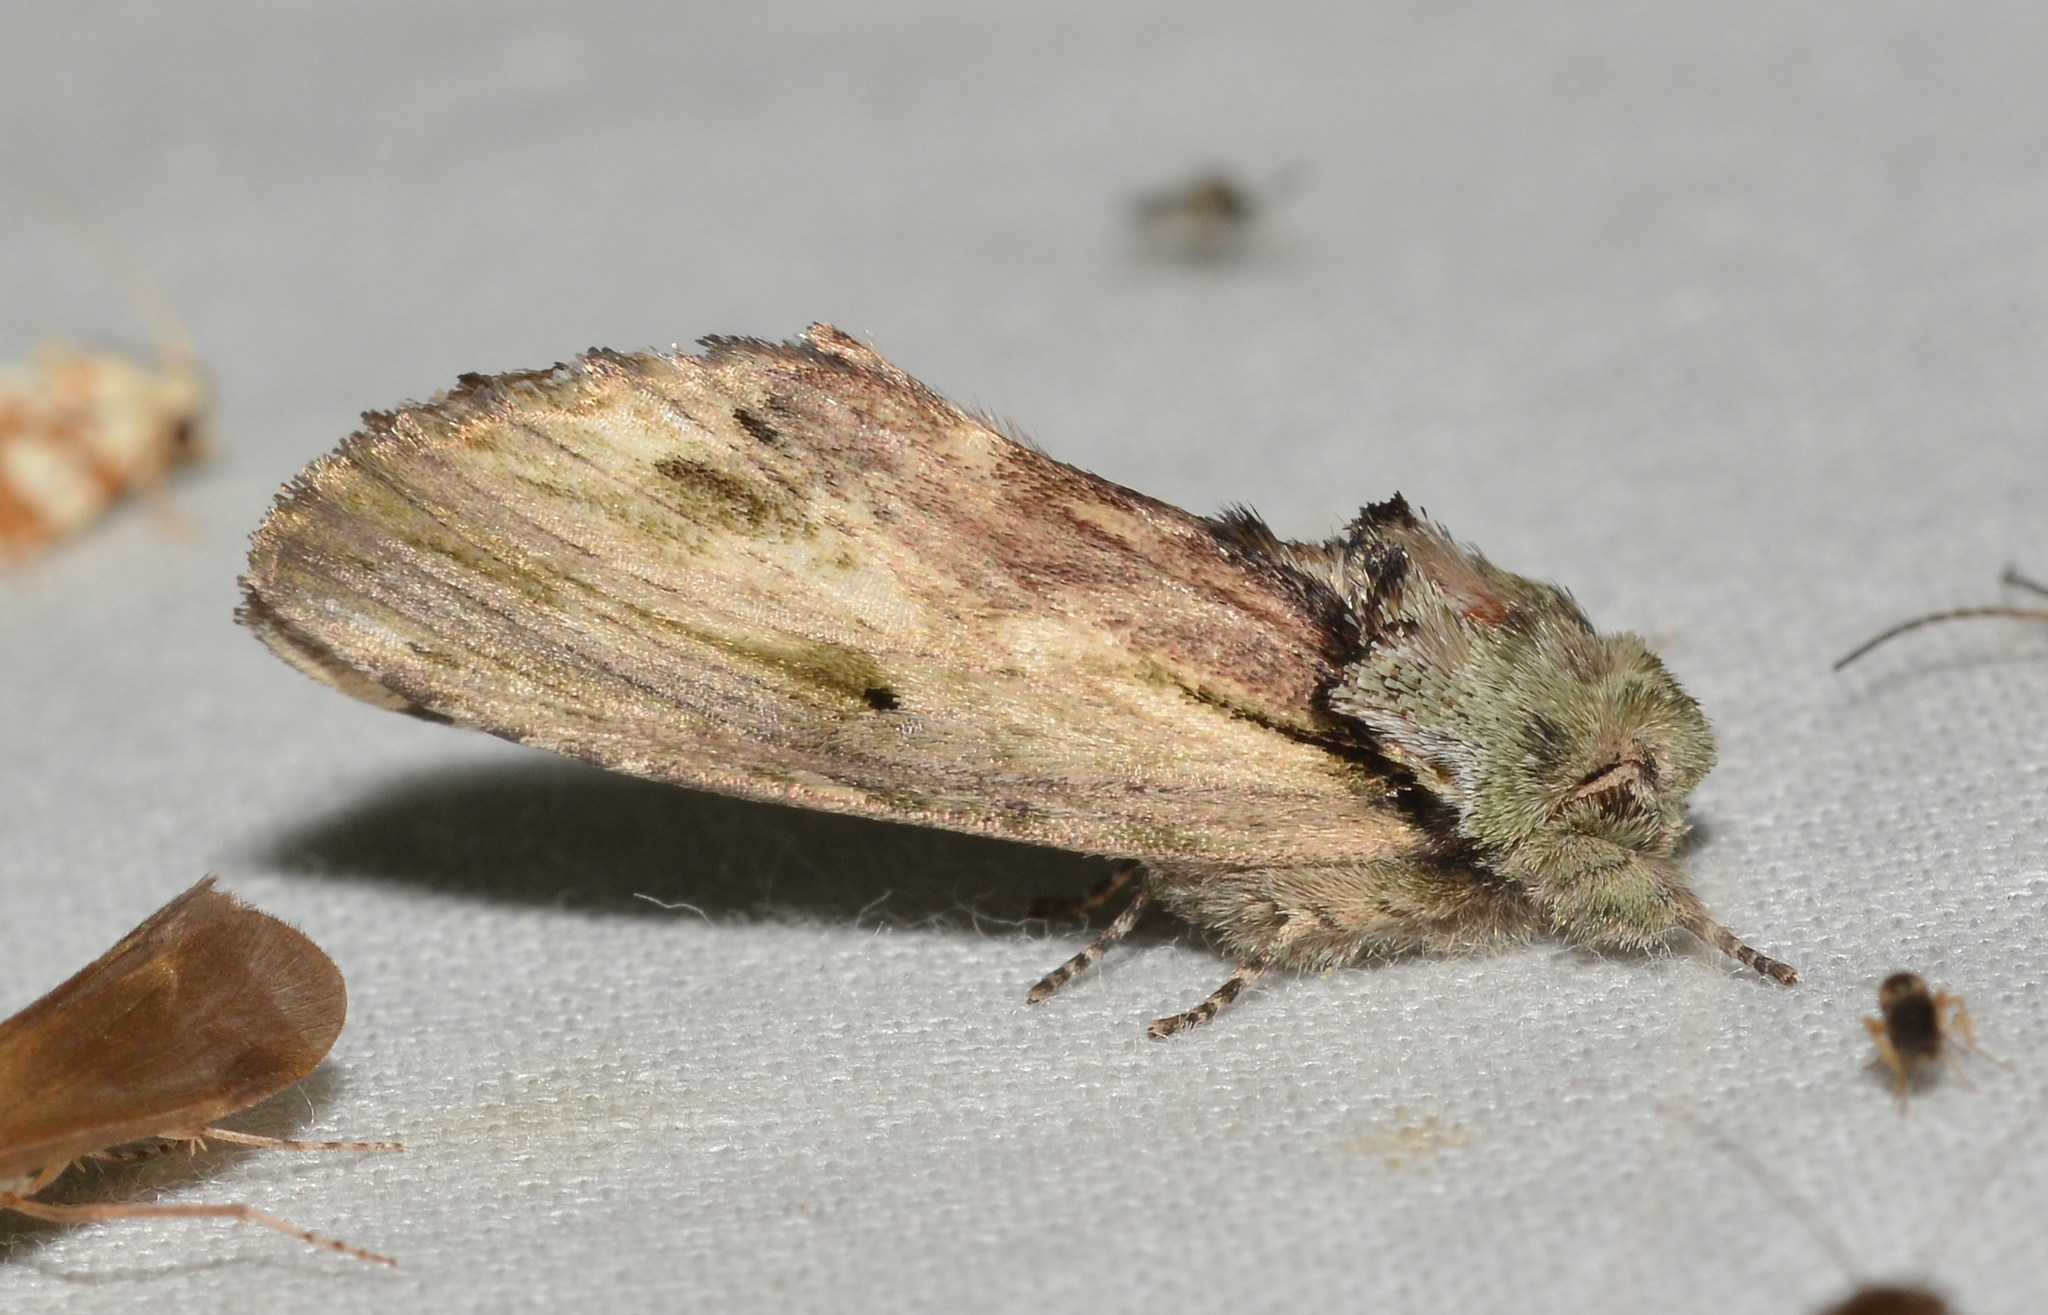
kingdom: Animalia
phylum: Arthropoda
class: Insecta
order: Lepidoptera
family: Notodontidae
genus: Schizura
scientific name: Schizura
